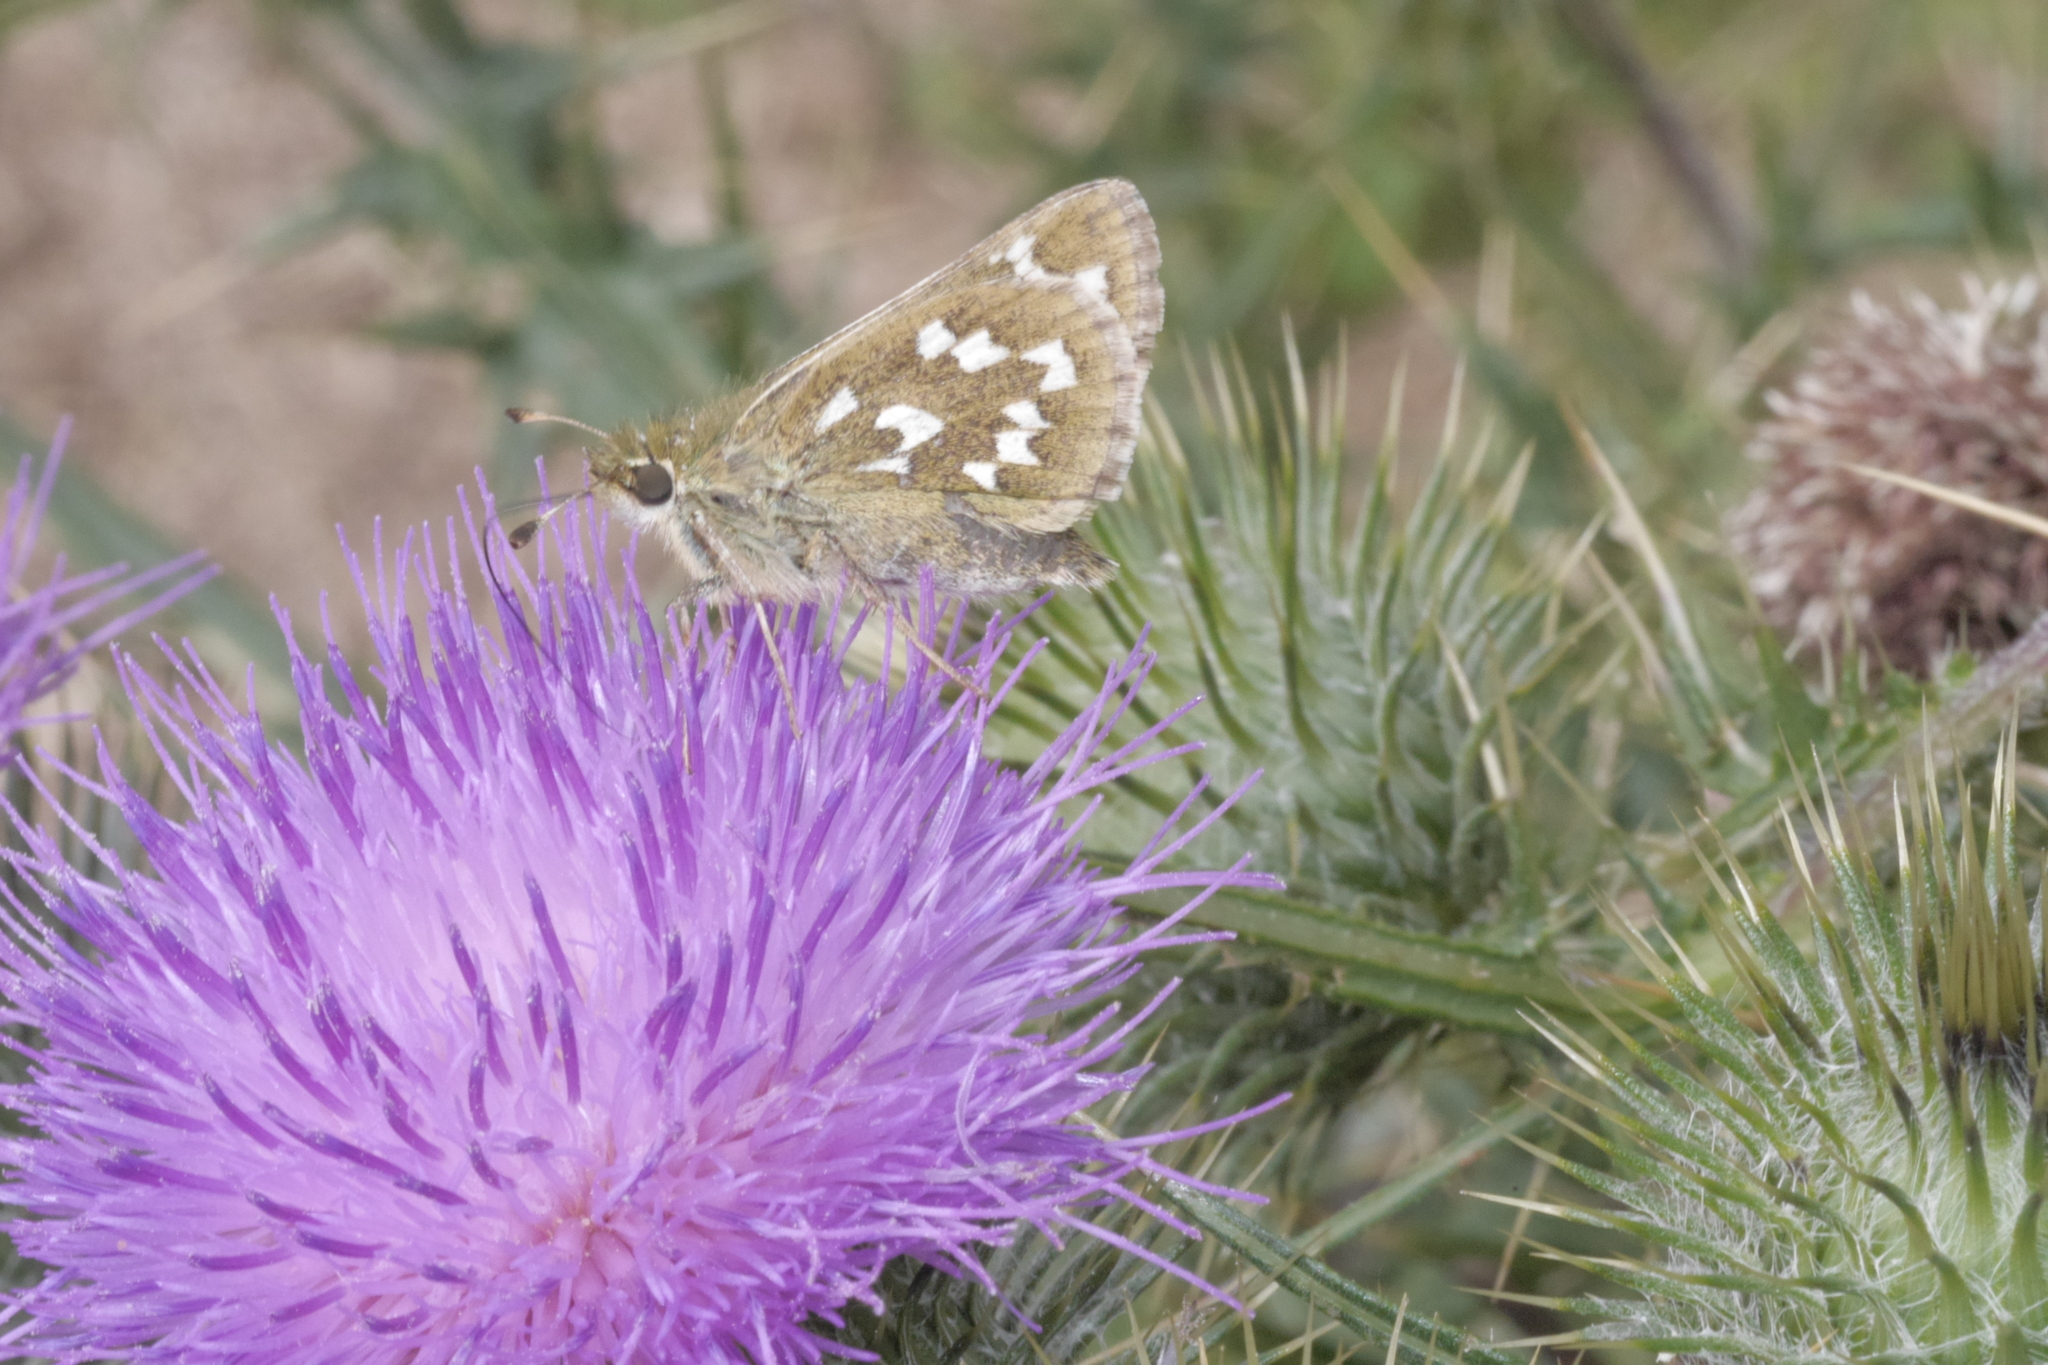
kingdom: Animalia
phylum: Arthropoda
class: Insecta
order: Lepidoptera
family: Hesperiidae
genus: Hesperia
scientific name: Hesperia comma
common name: Common branded skipper
